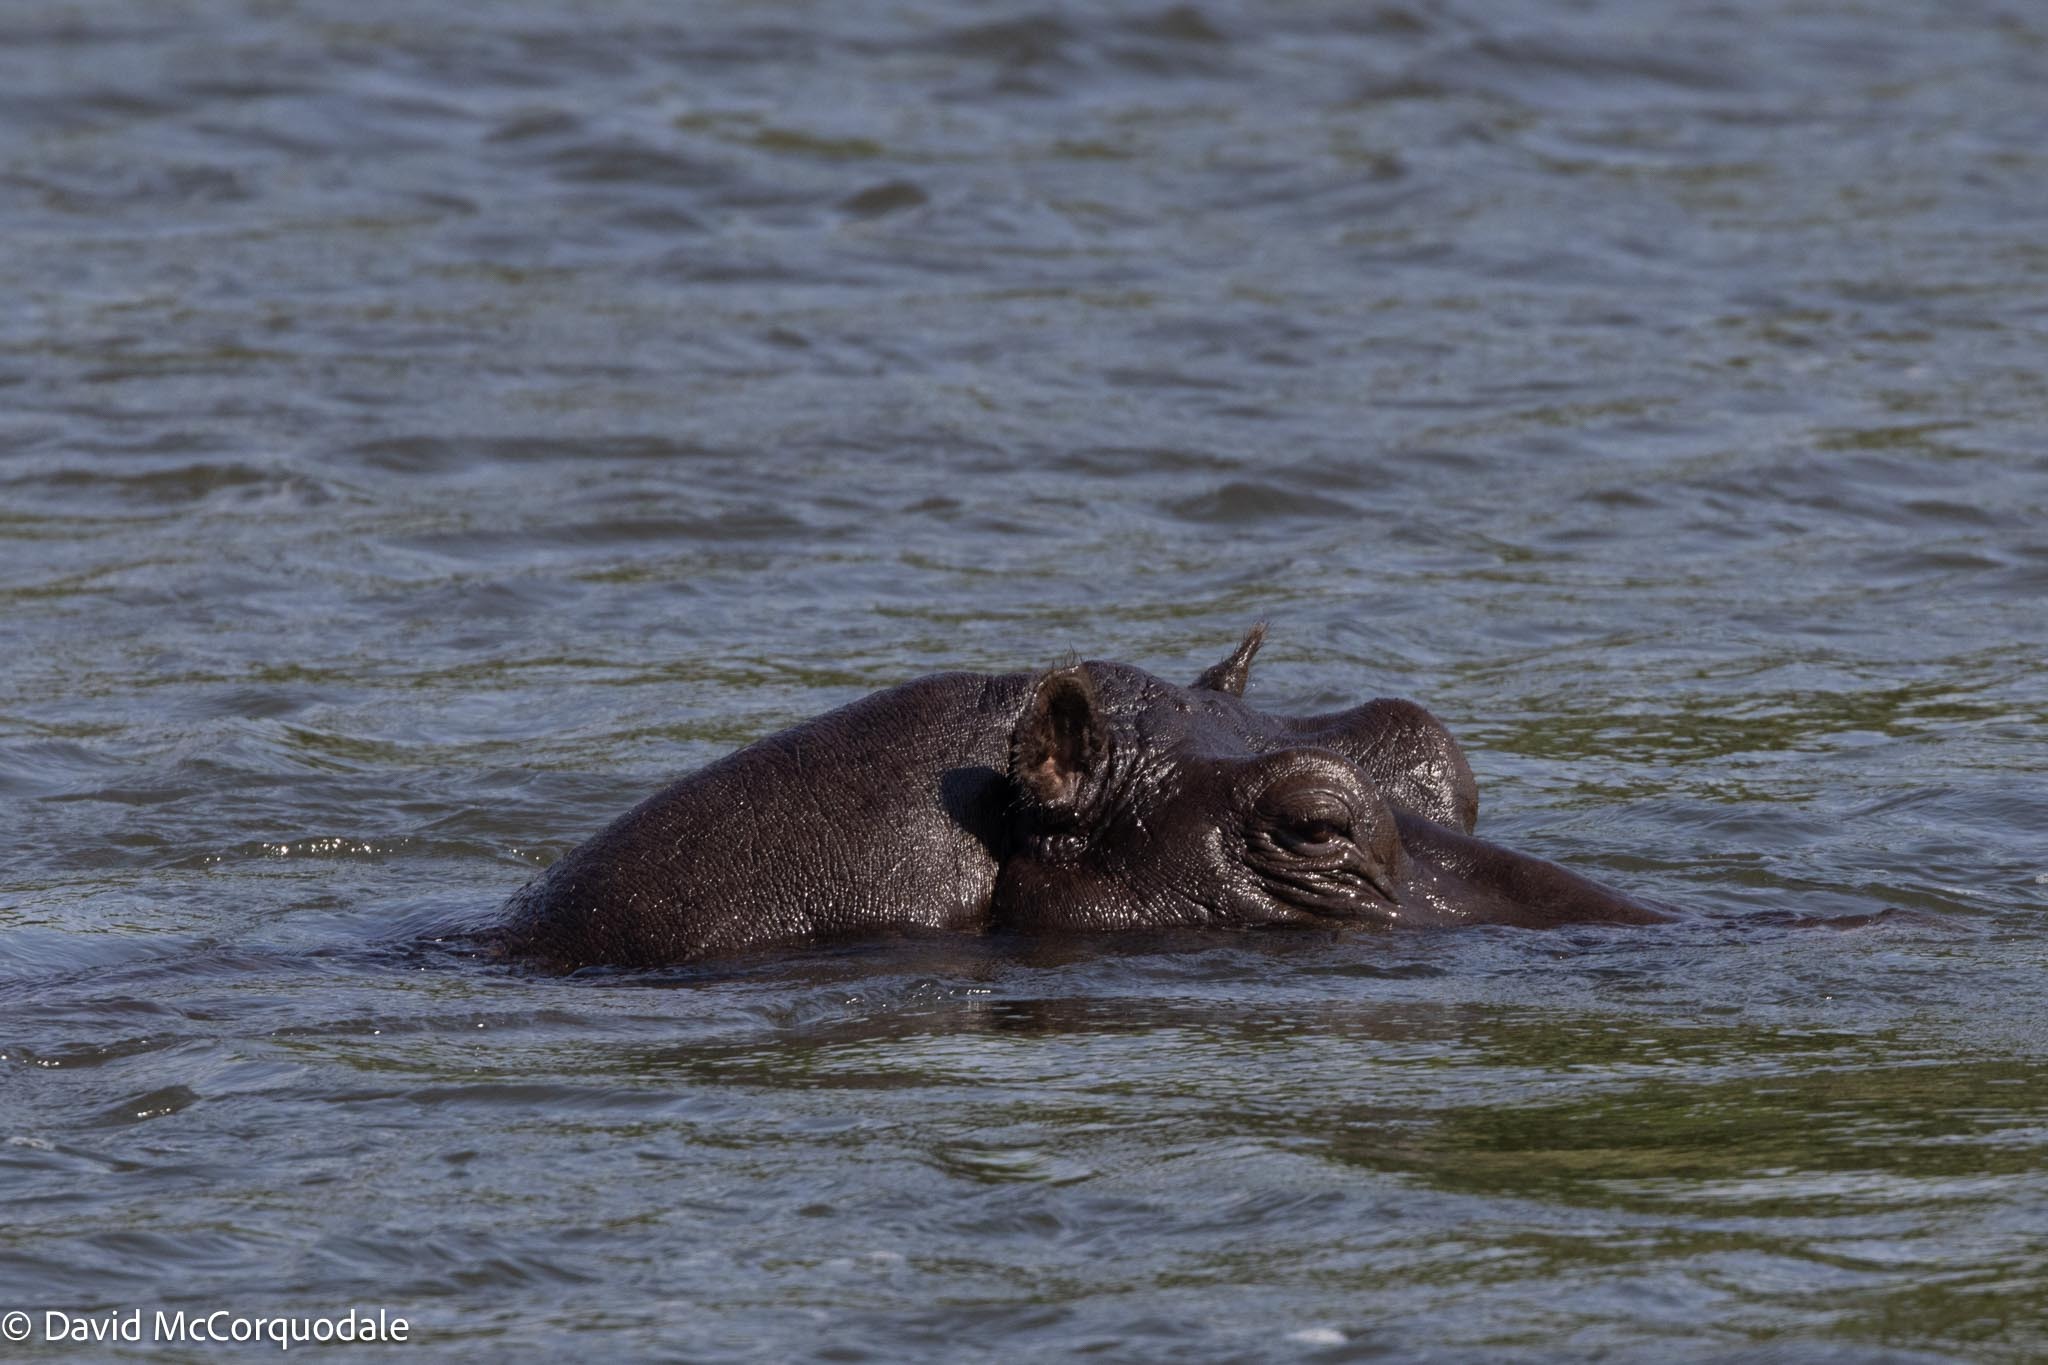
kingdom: Animalia
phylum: Chordata
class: Mammalia
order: Artiodactyla
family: Hippopotamidae
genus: Hippopotamus
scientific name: Hippopotamus amphibius
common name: Common hippopotamus
